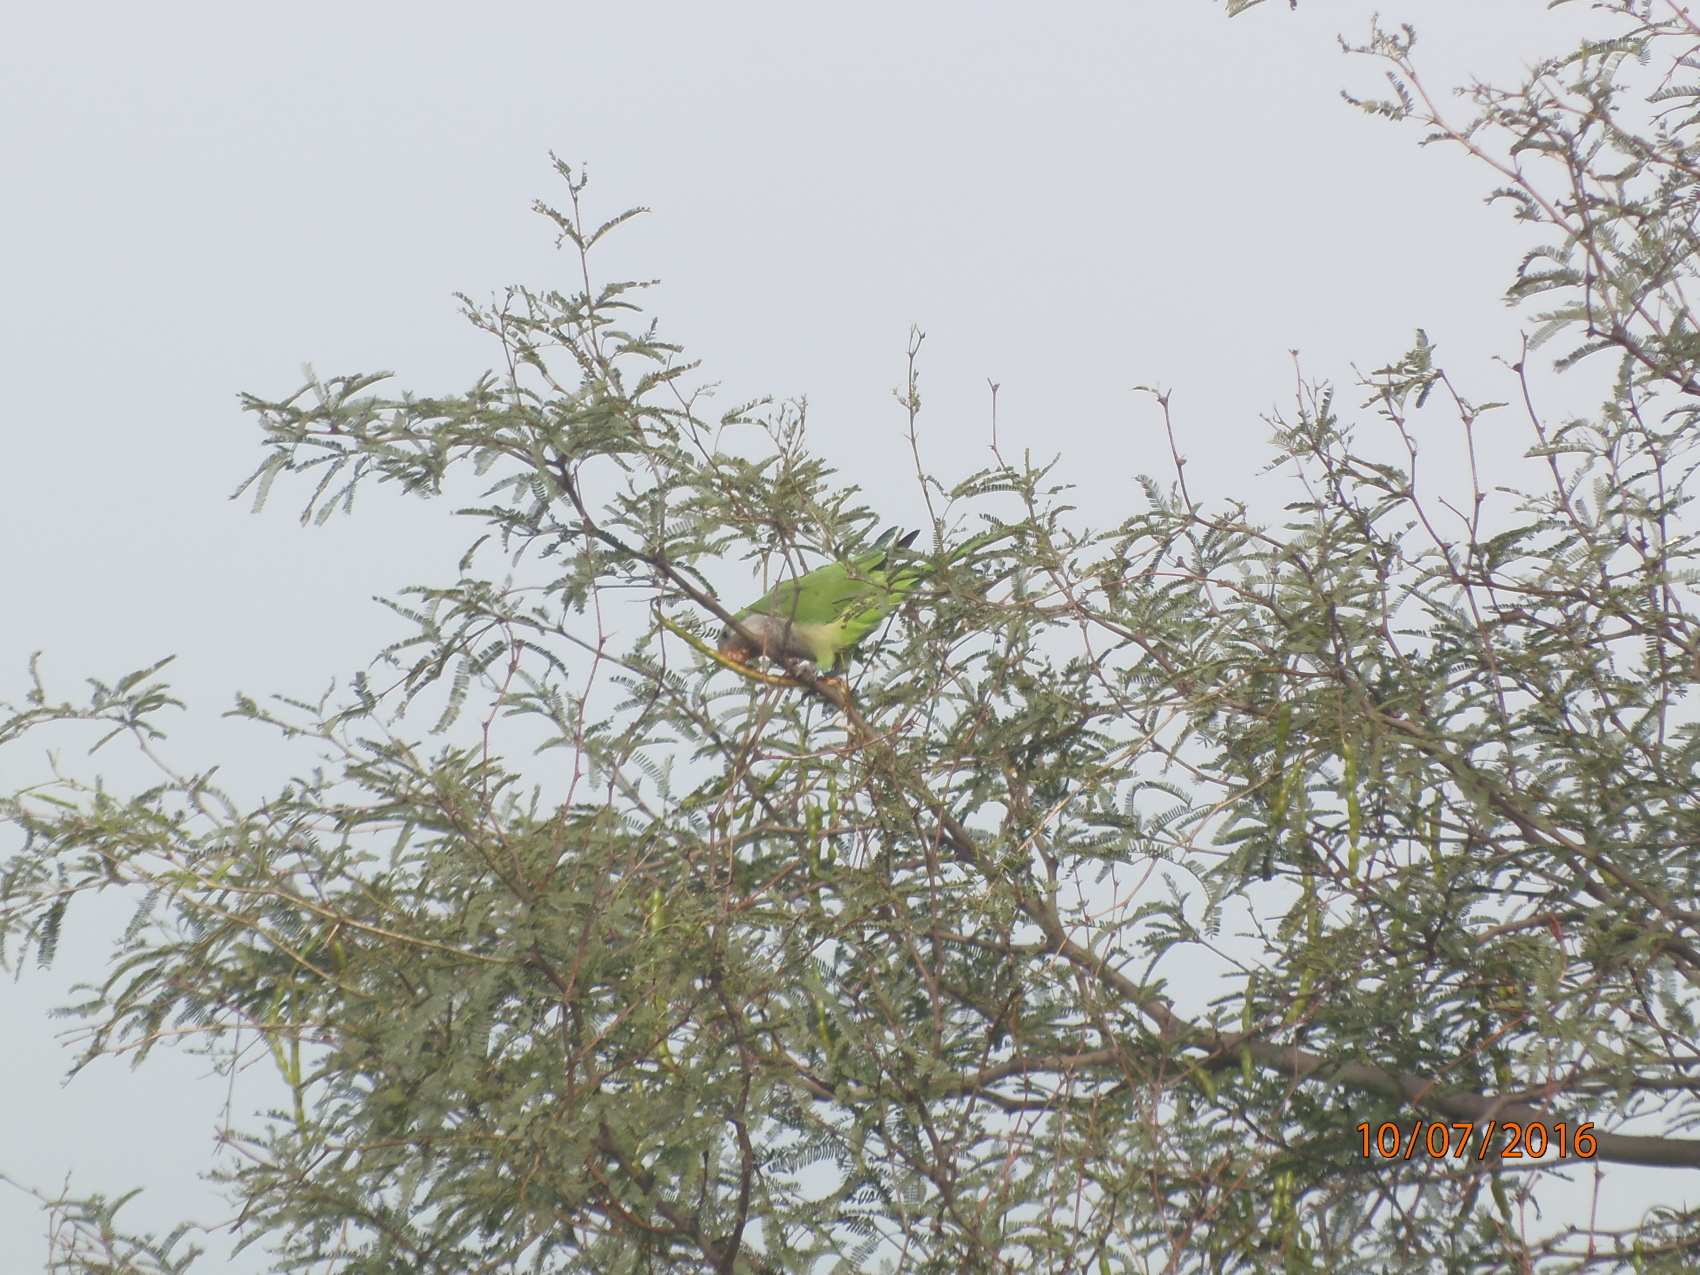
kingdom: Animalia
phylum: Chordata
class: Aves
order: Psittaciformes
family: Psittacidae
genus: Myiopsitta
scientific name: Myiopsitta monachus
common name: Monk parakeet
